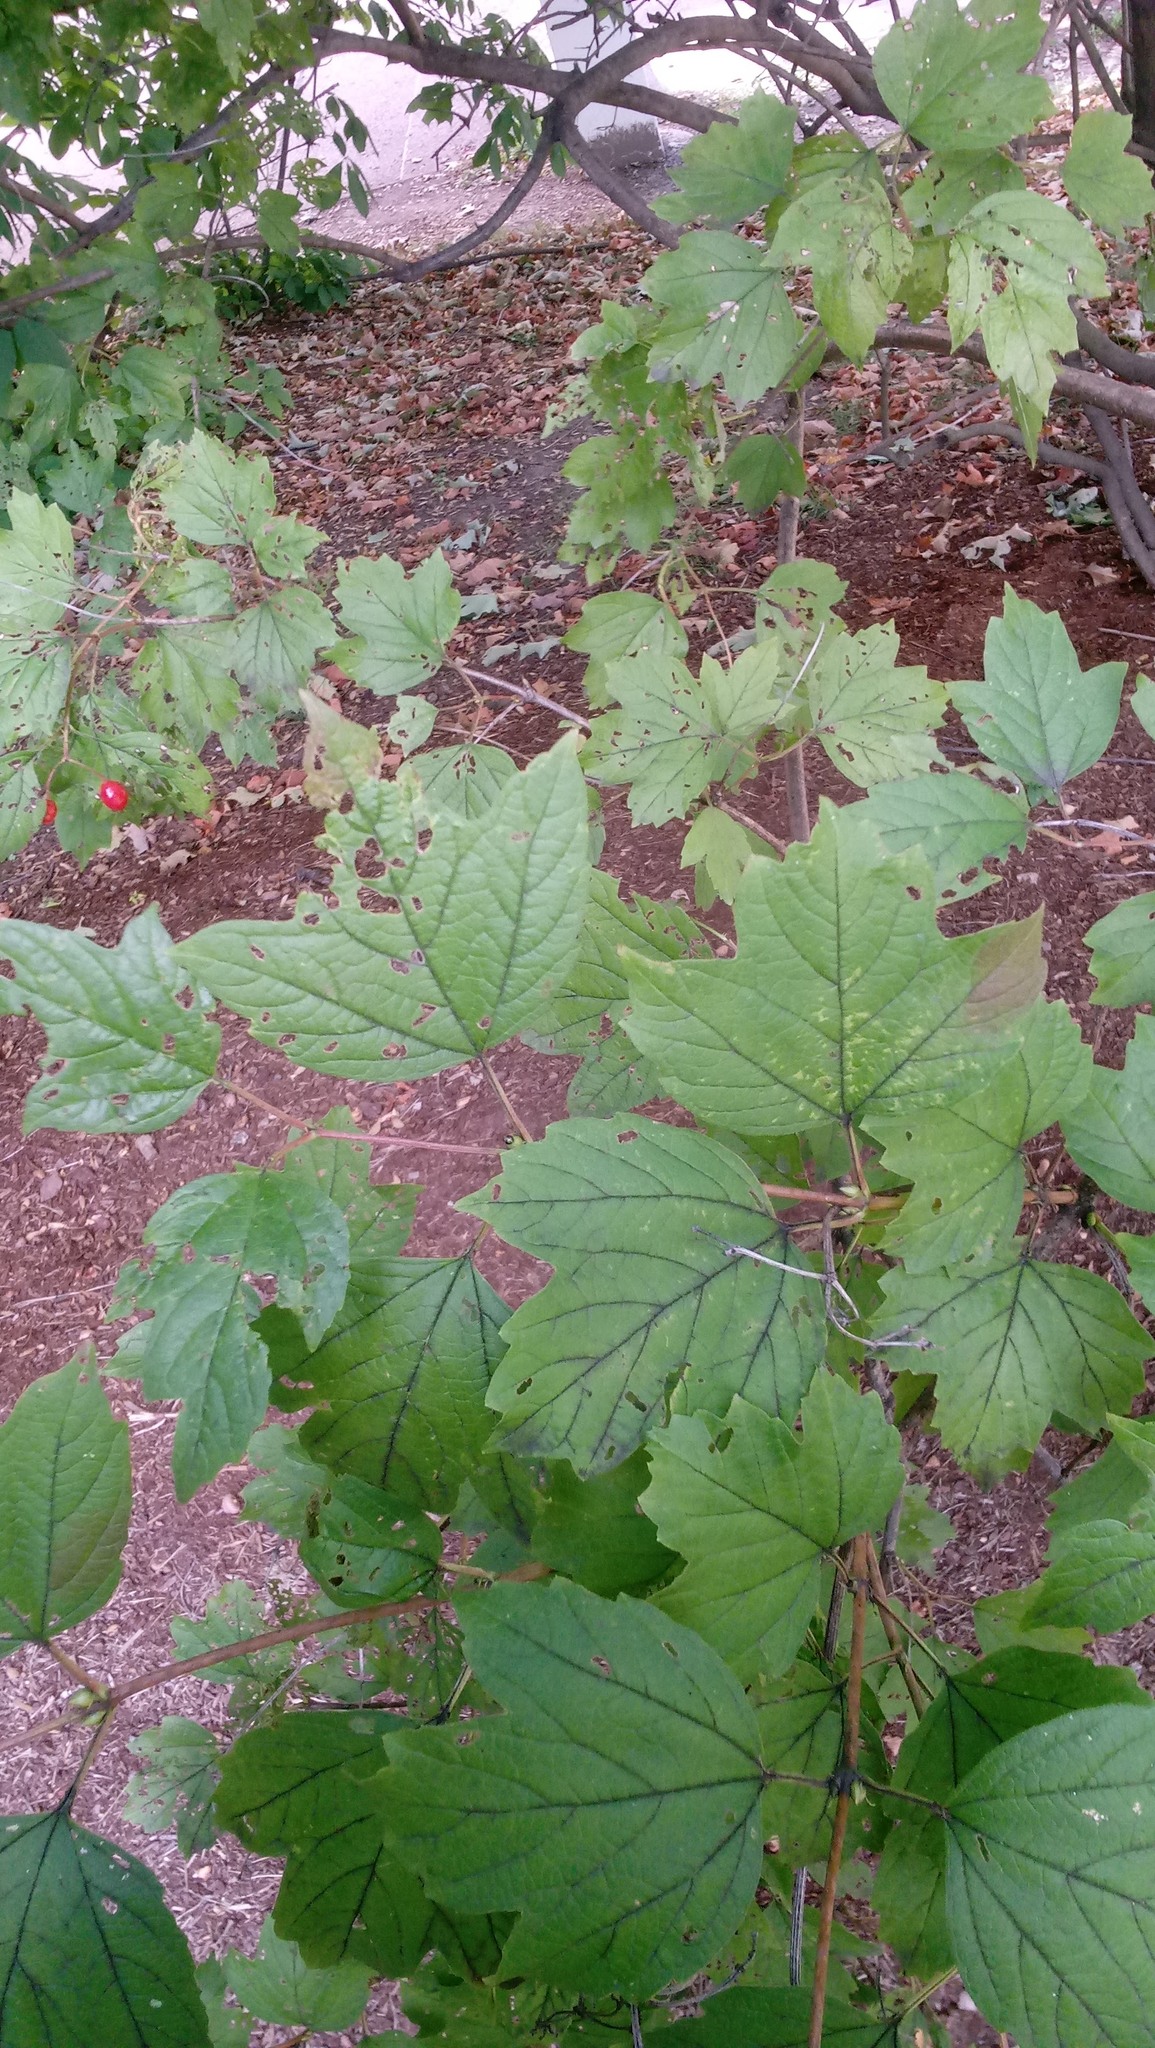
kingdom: Plantae
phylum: Tracheophyta
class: Magnoliopsida
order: Dipsacales
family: Viburnaceae
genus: Viburnum
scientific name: Viburnum acerifolium
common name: Dockmackie
